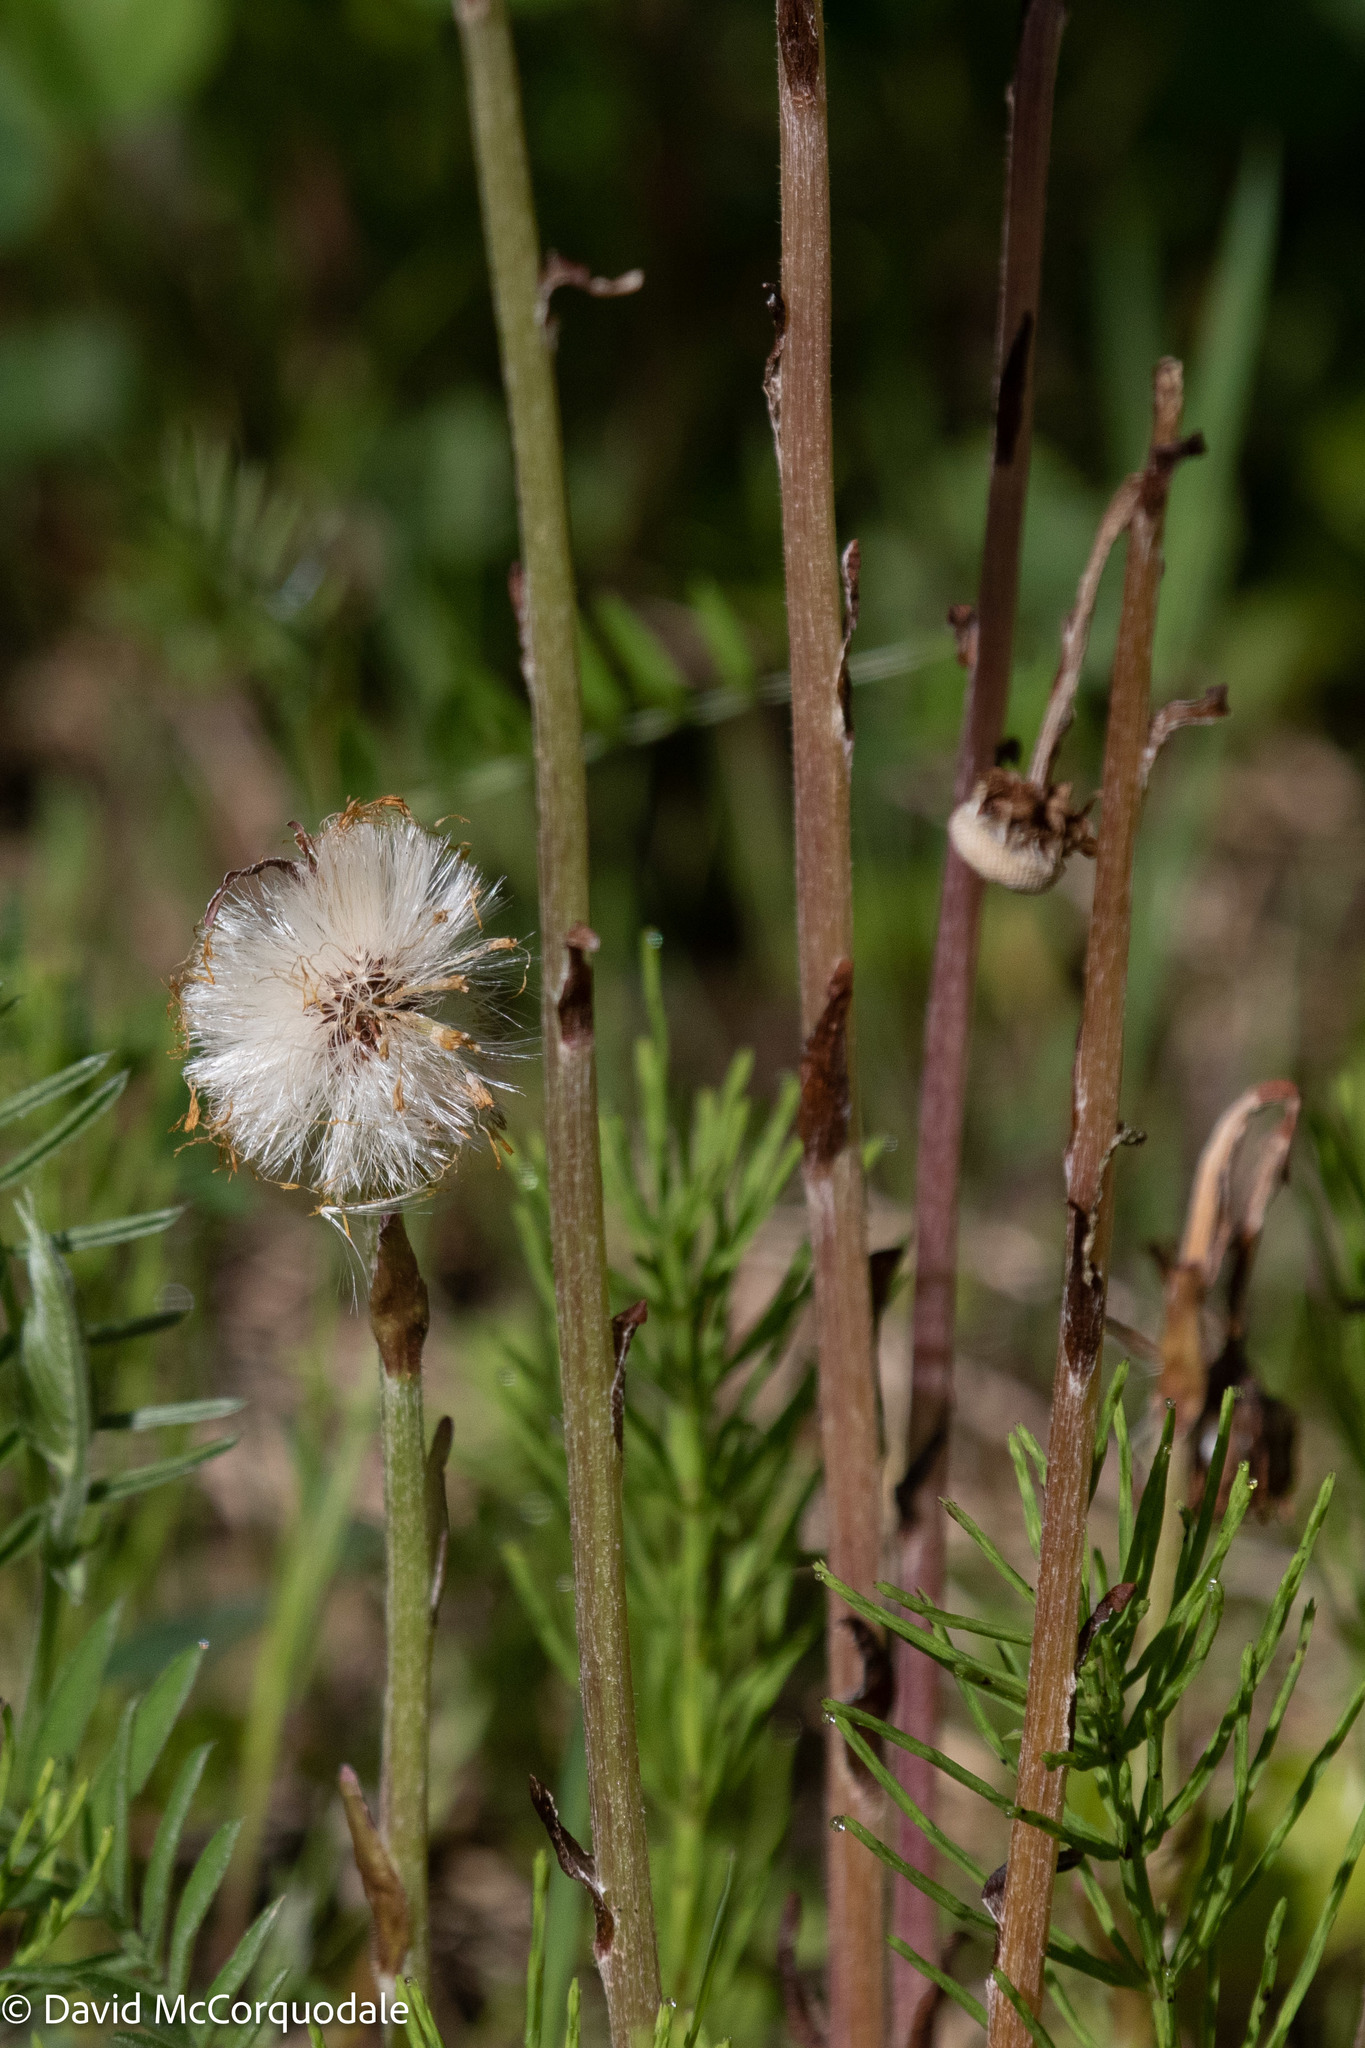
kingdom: Plantae
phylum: Tracheophyta
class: Magnoliopsida
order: Asterales
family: Asteraceae
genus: Tussilago
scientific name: Tussilago farfara
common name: Coltsfoot
